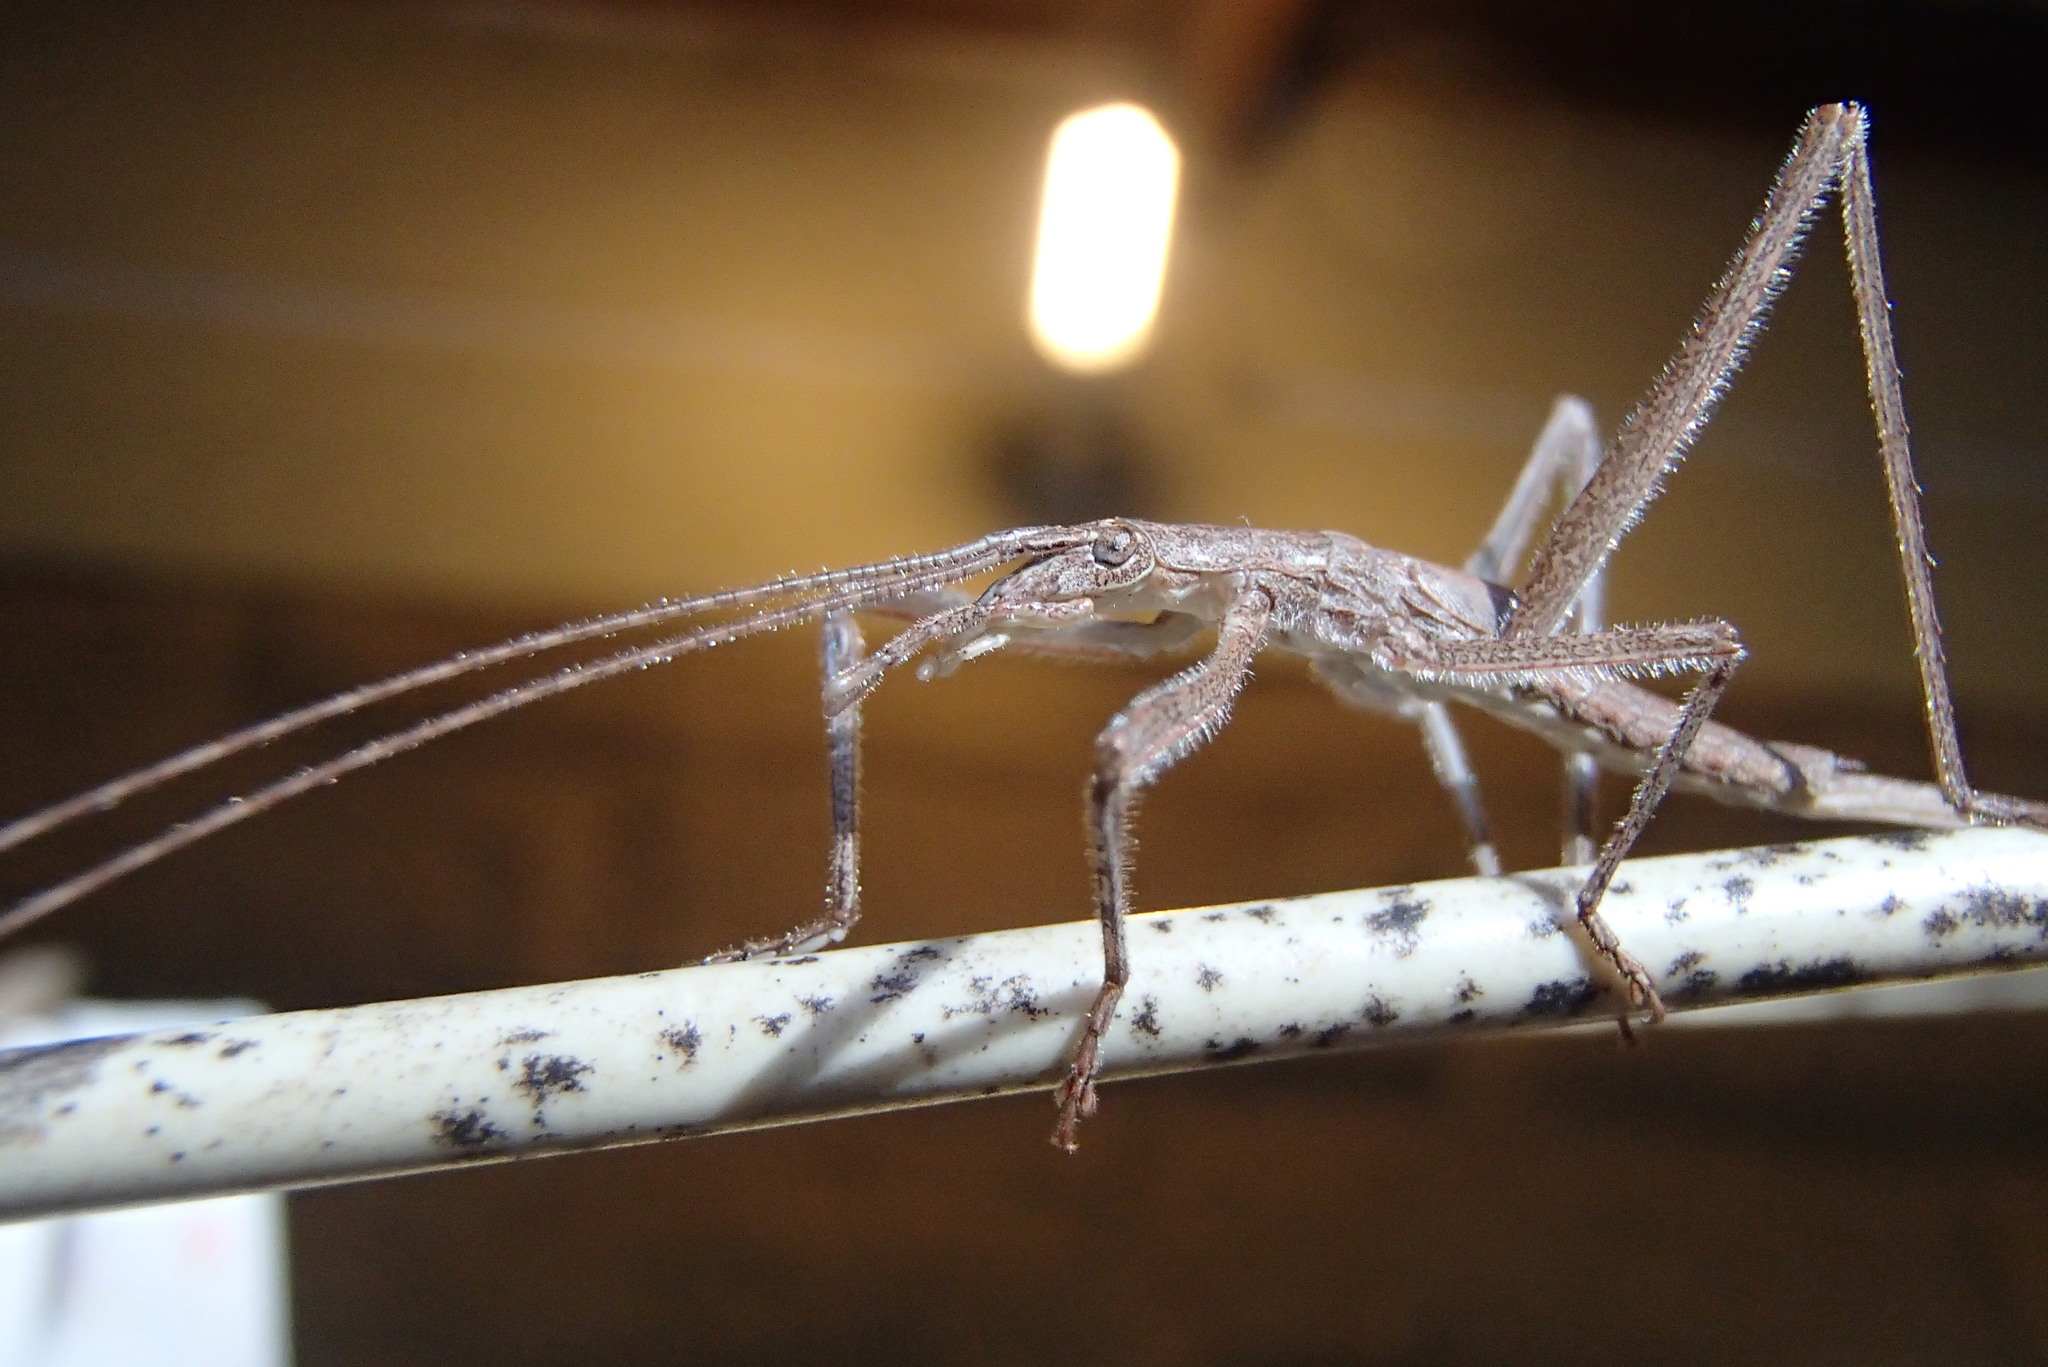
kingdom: Animalia
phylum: Arthropoda
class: Insecta
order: Orthoptera
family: Tettigoniidae
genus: Zaprochilus
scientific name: Zaprochilus australis
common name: Australian twig-mimicking katydid
